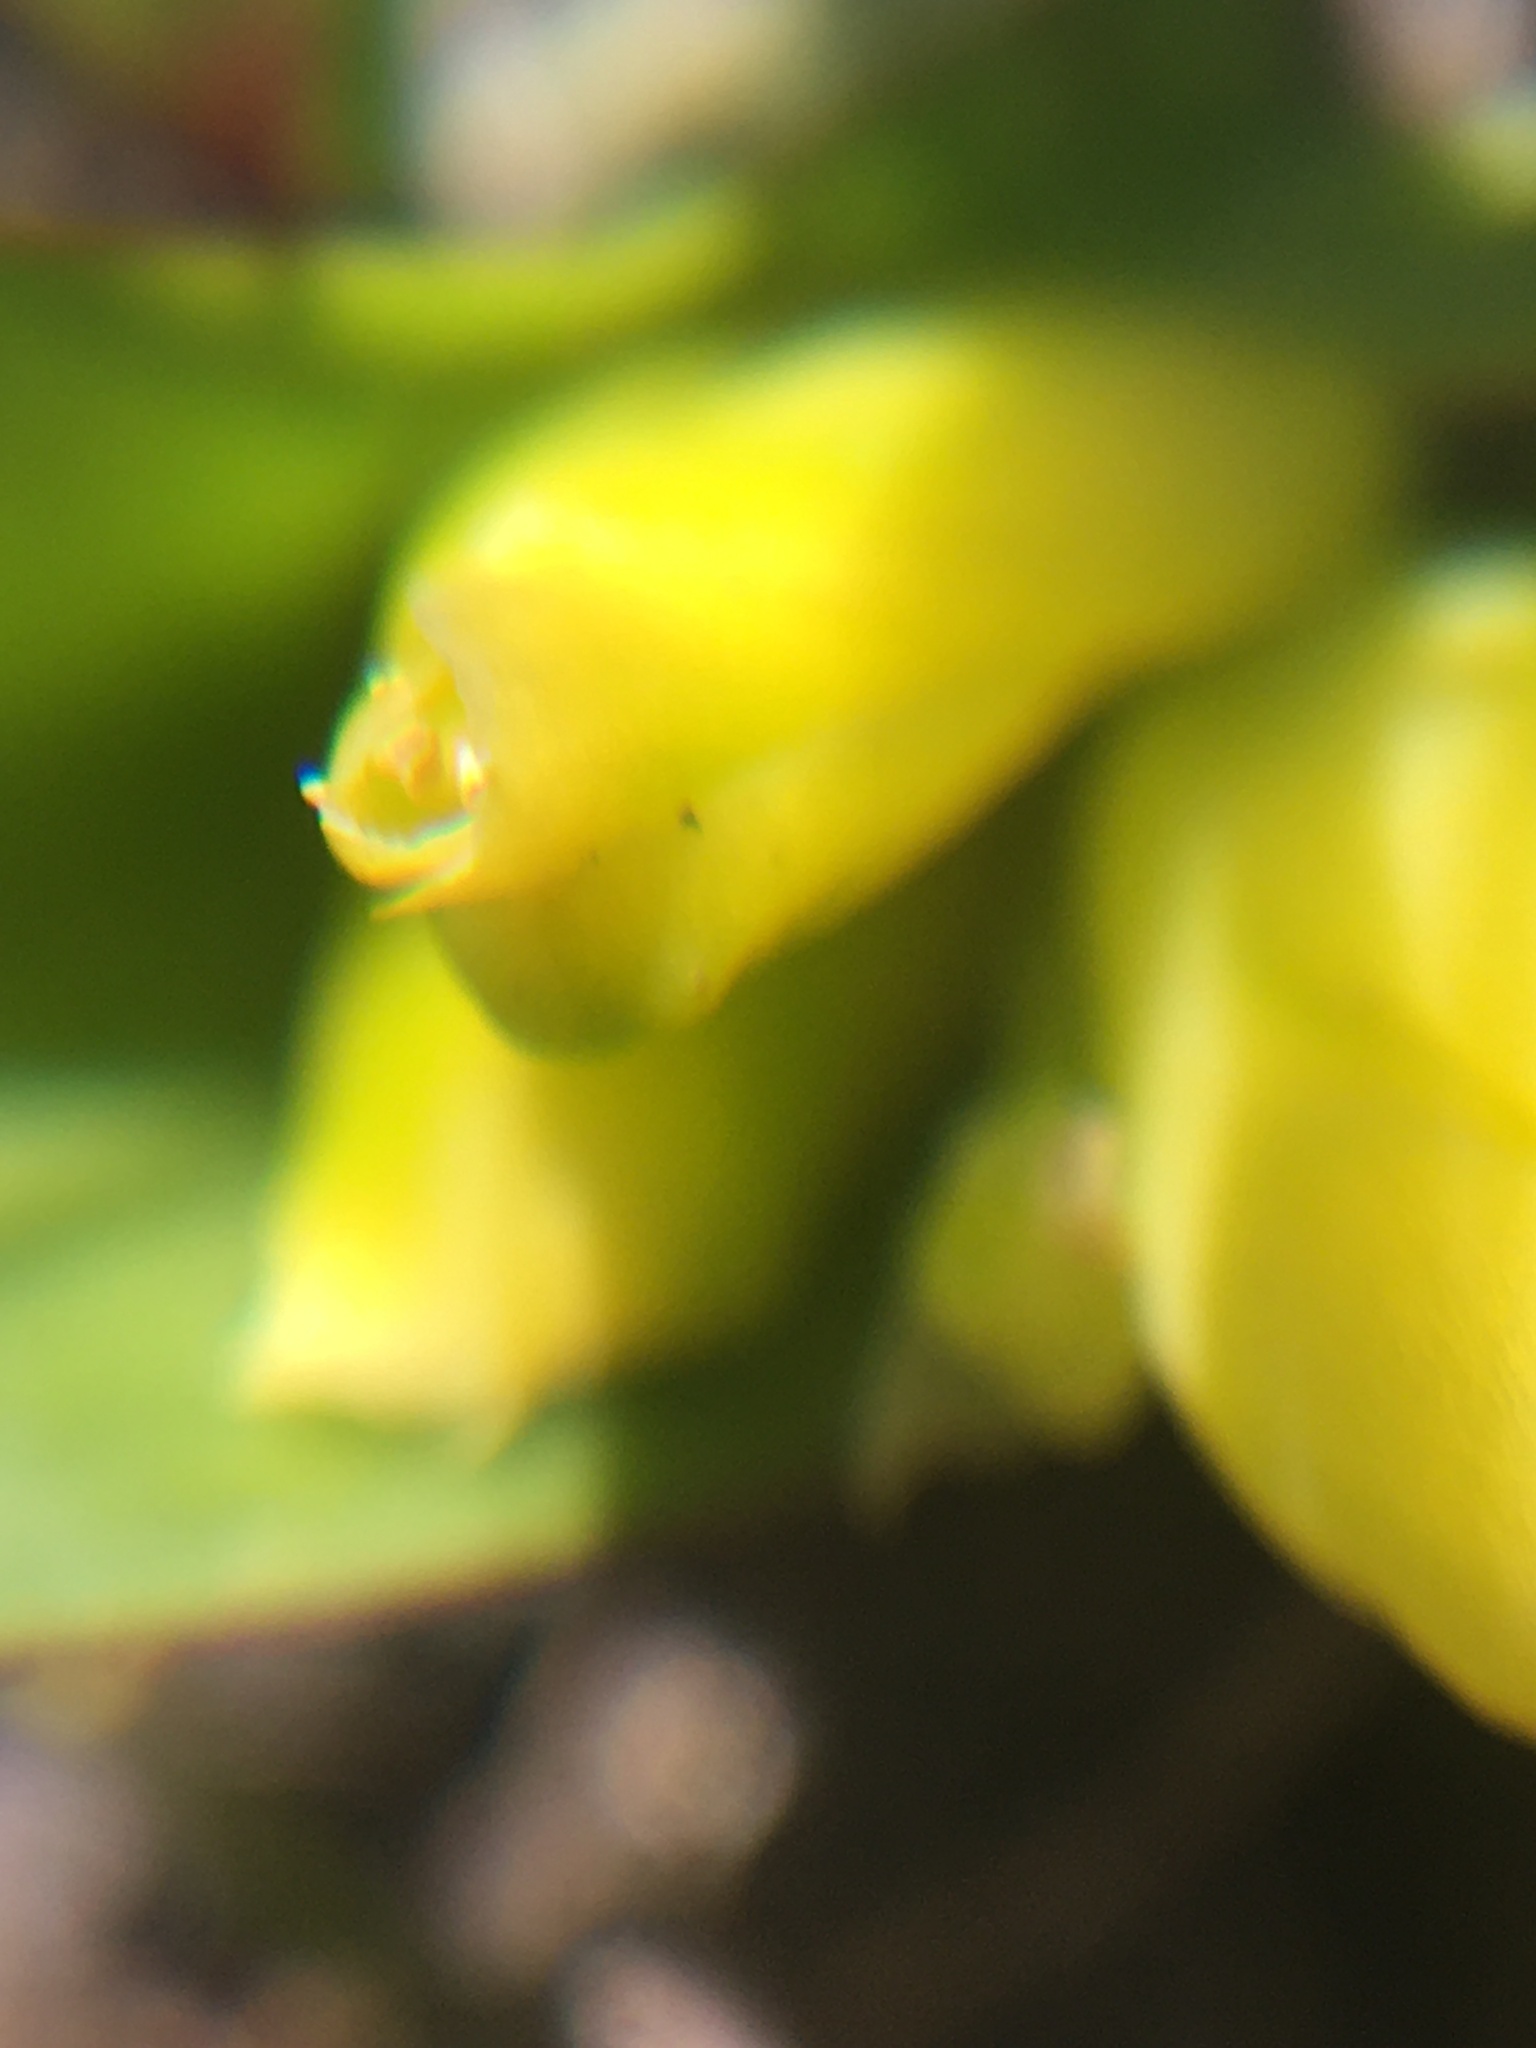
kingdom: Plantae
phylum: Tracheophyta
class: Liliopsida
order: Asparagales
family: Asparagaceae
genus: Lachenalia
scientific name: Lachenalia reflexa
